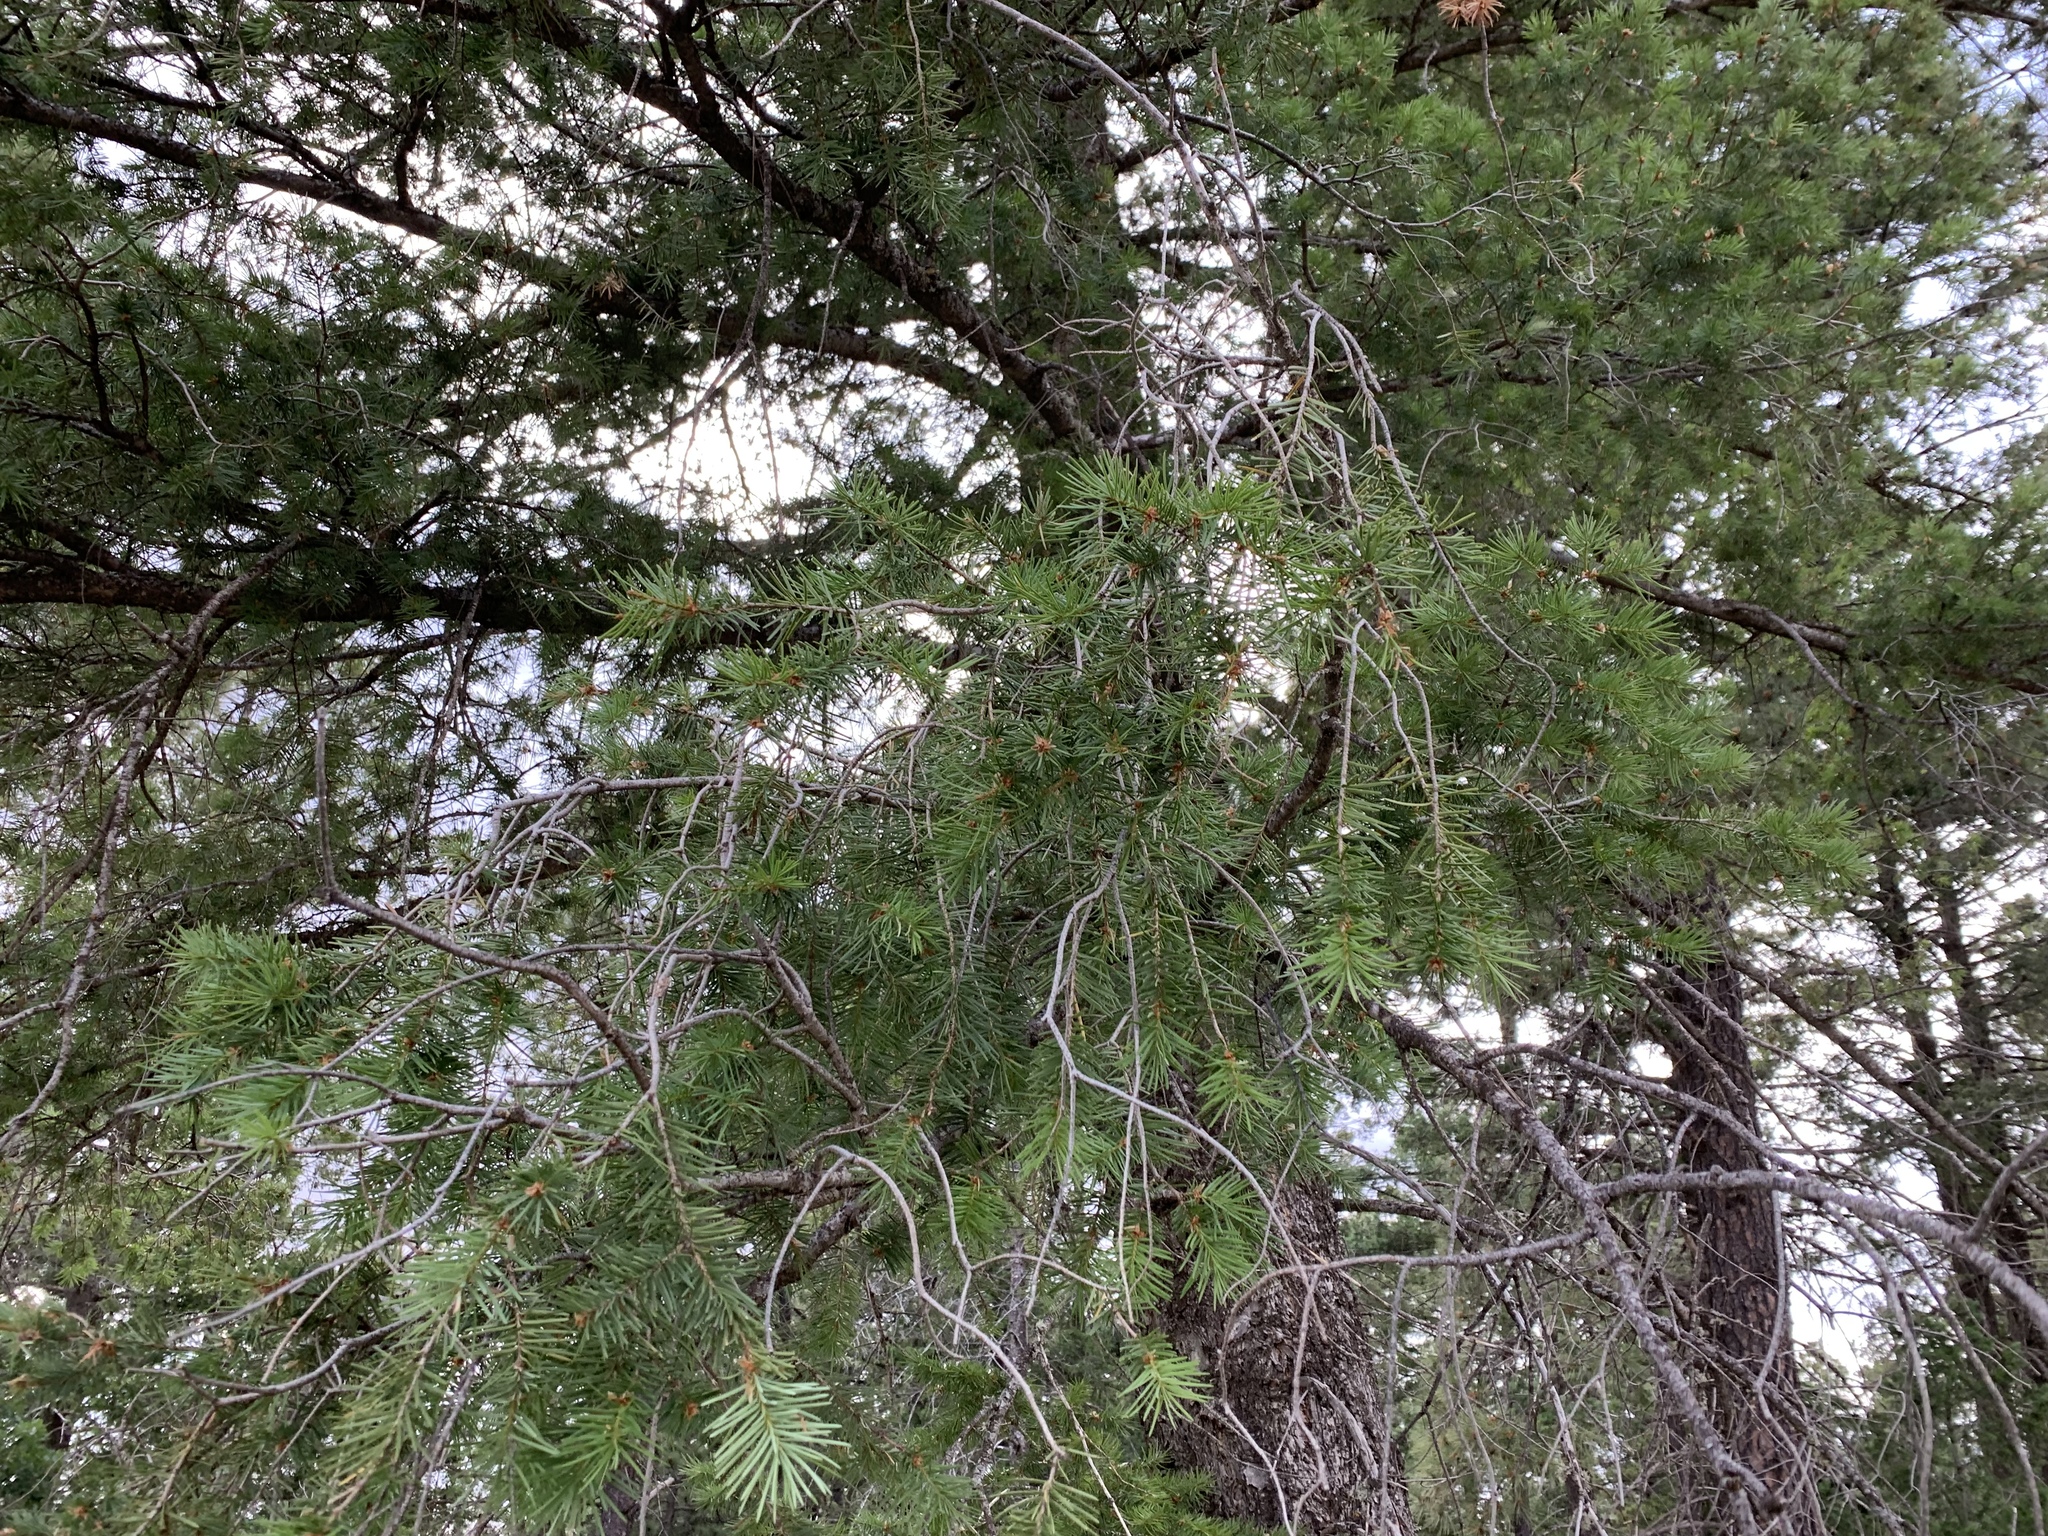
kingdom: Plantae
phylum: Tracheophyta
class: Pinopsida
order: Pinales
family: Pinaceae
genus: Pseudotsuga
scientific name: Pseudotsuga menziesii
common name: Douglas fir
